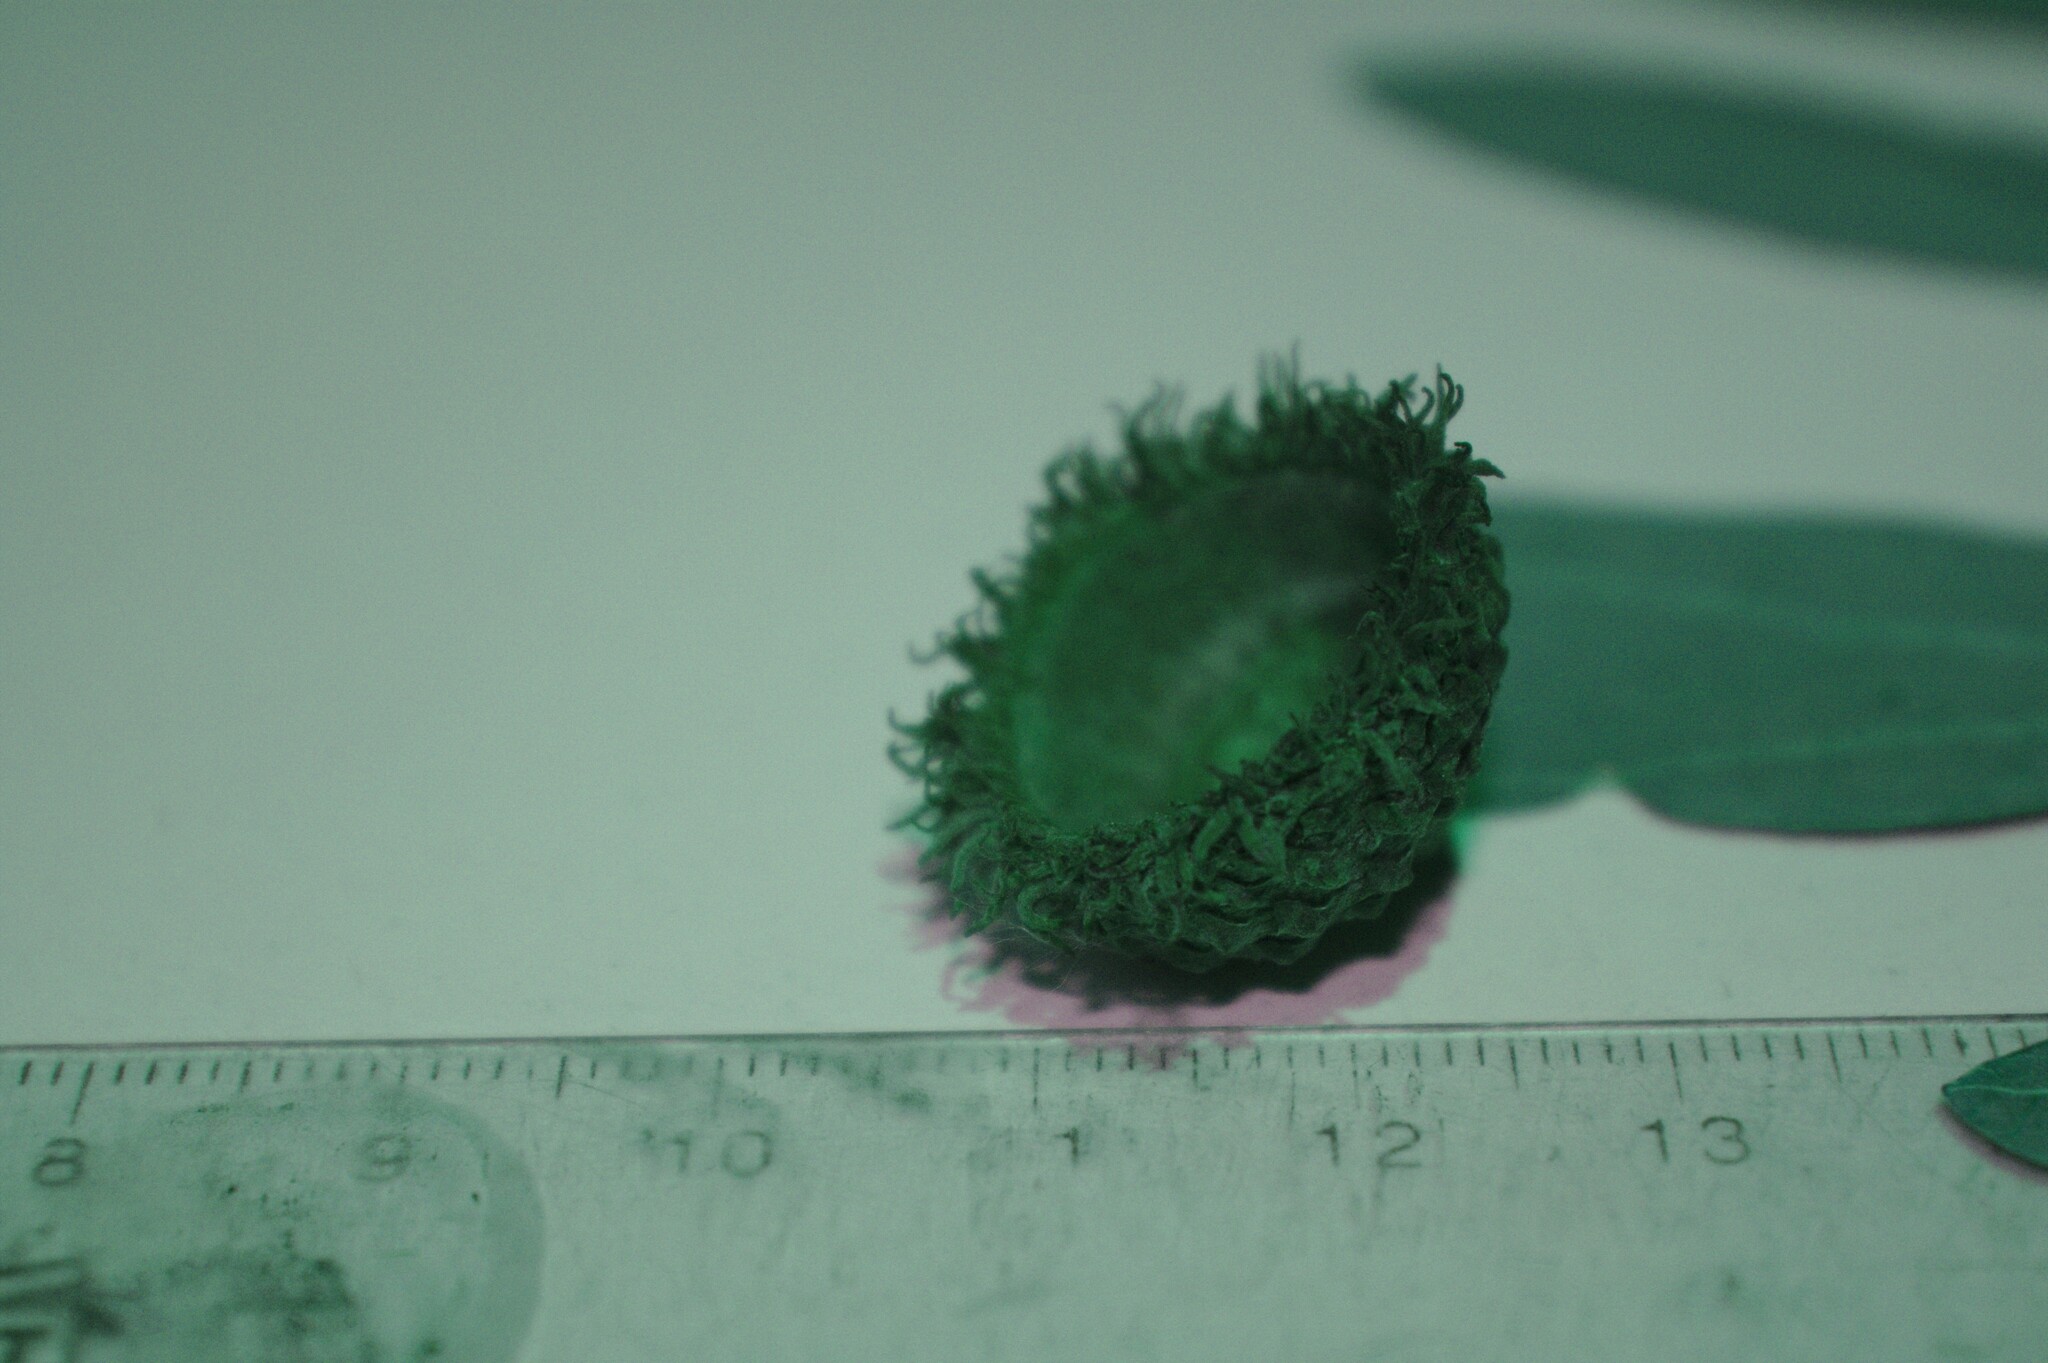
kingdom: Plantae
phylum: Tracheophyta
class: Magnoliopsida
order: Fagales
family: Fagaceae
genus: Quercus
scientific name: Quercus macrocarpa
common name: Bur oak
